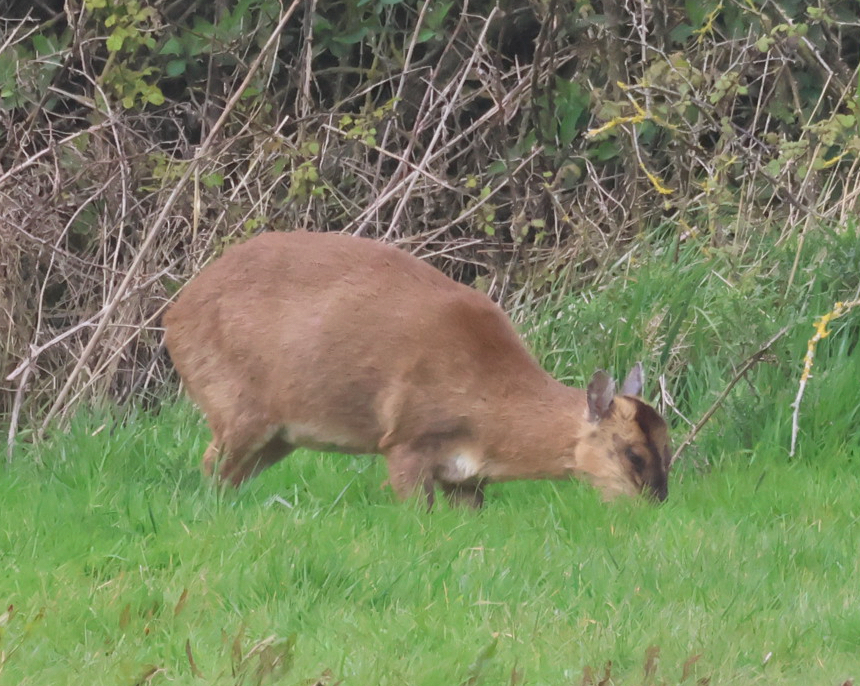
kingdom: Animalia
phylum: Chordata
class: Mammalia
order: Artiodactyla
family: Cervidae
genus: Muntiacus
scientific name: Muntiacus reevesi
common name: Reeves' muntjac
